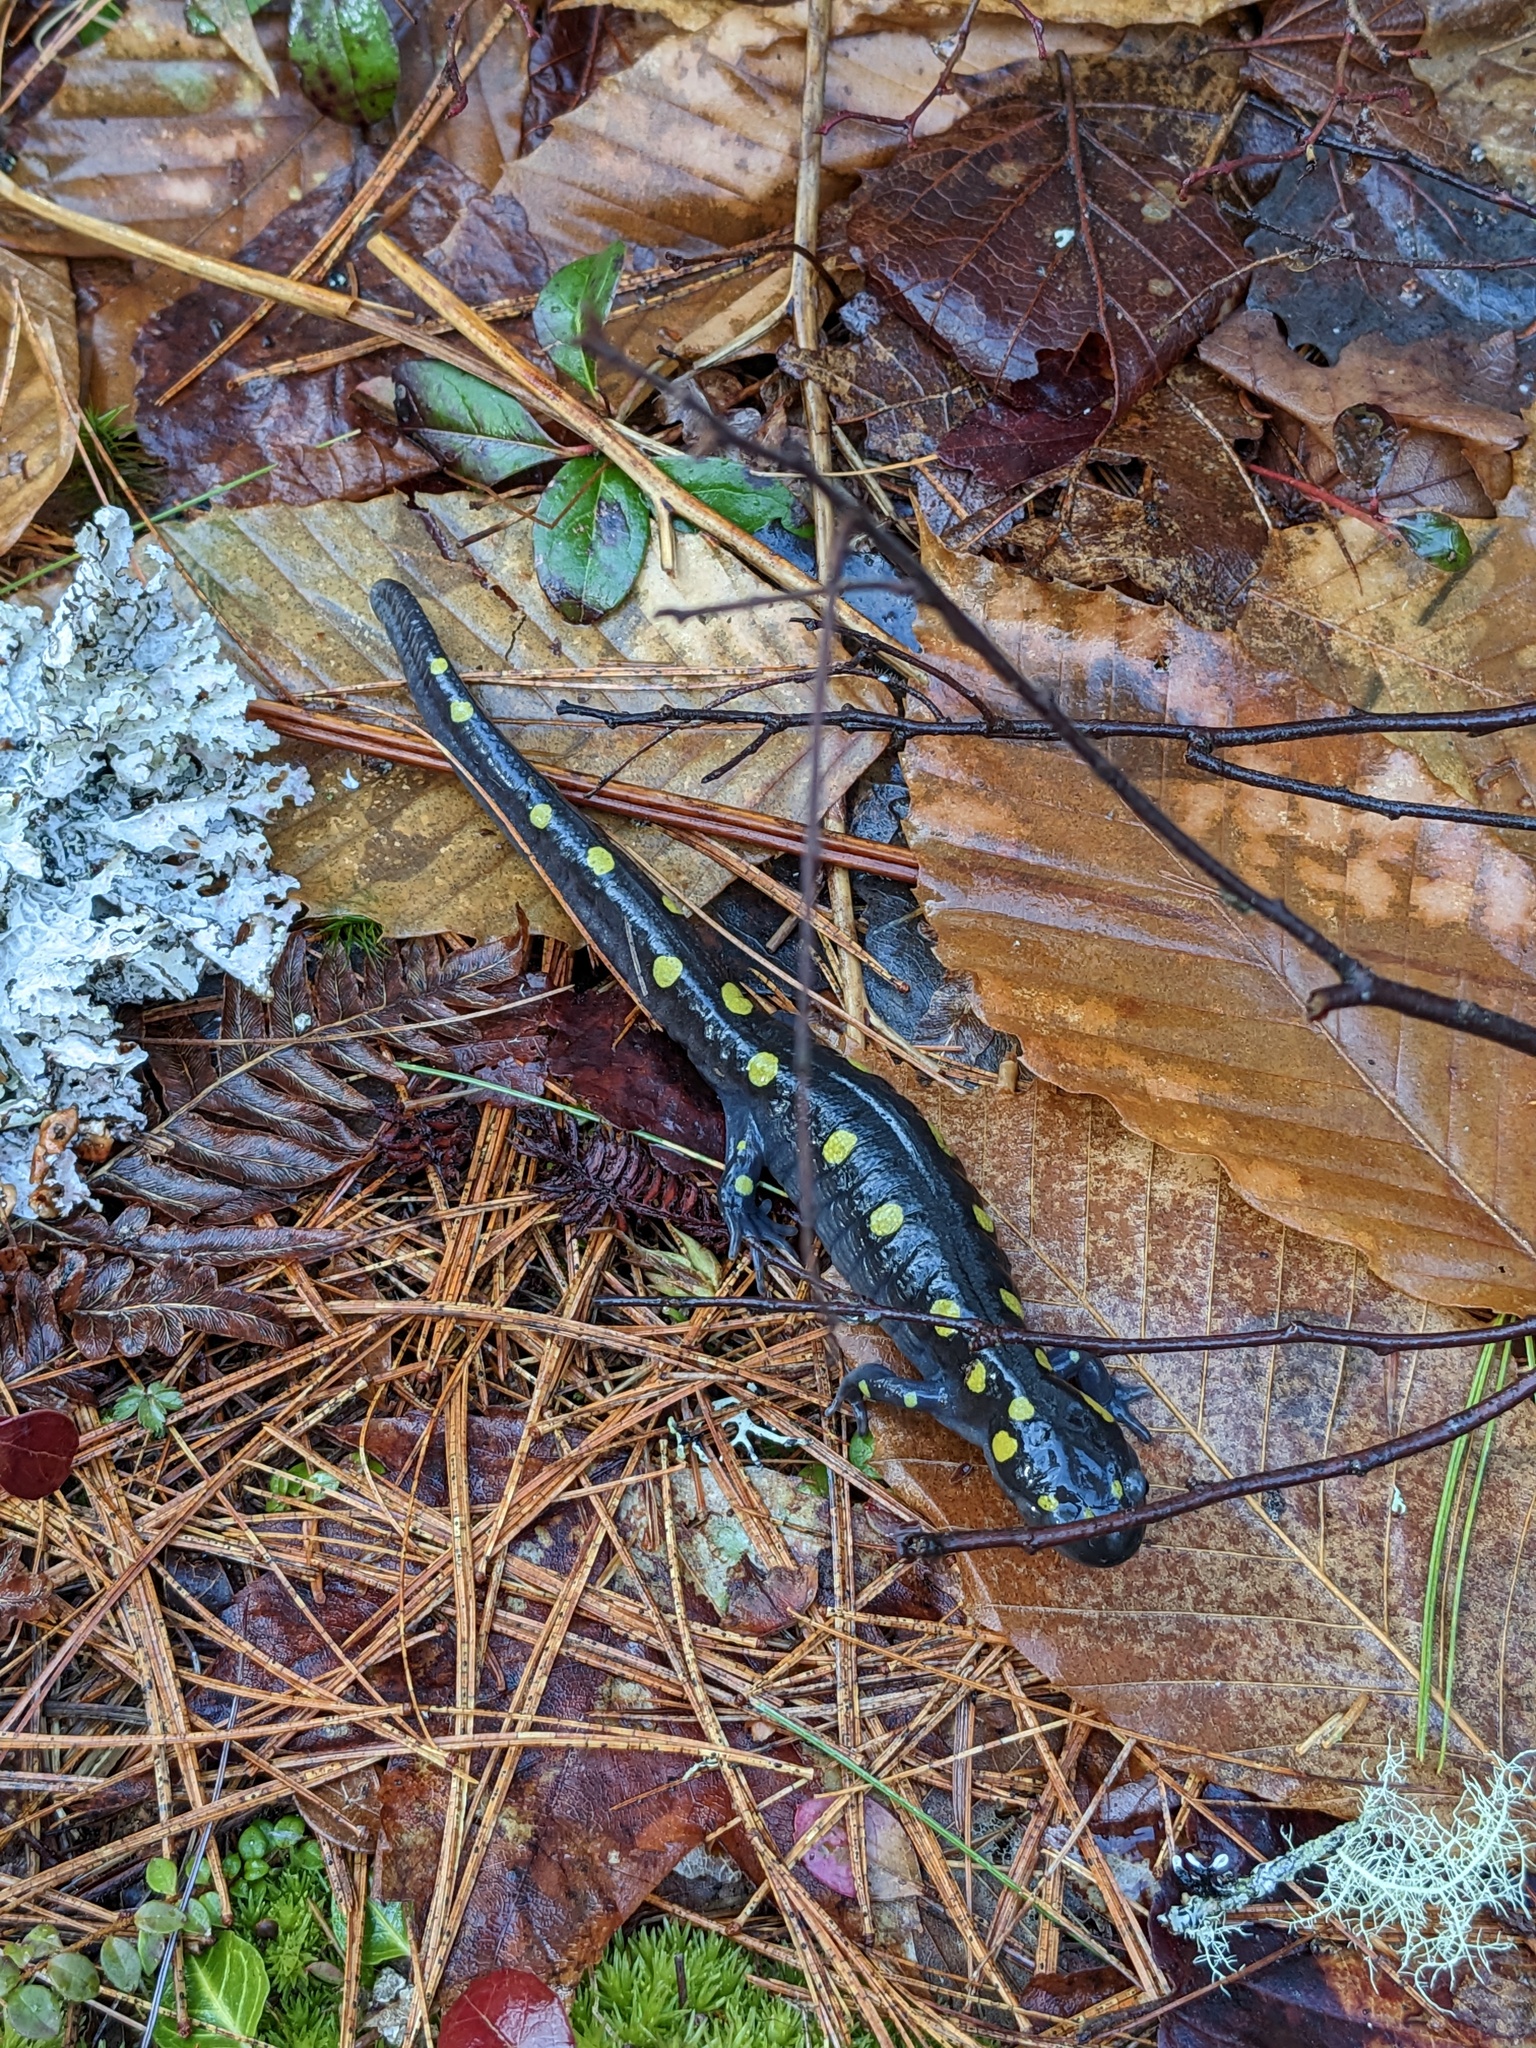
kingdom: Animalia
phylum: Chordata
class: Amphibia
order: Caudata
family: Ambystomatidae
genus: Ambystoma
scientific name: Ambystoma maculatum
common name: Spotted salamander
